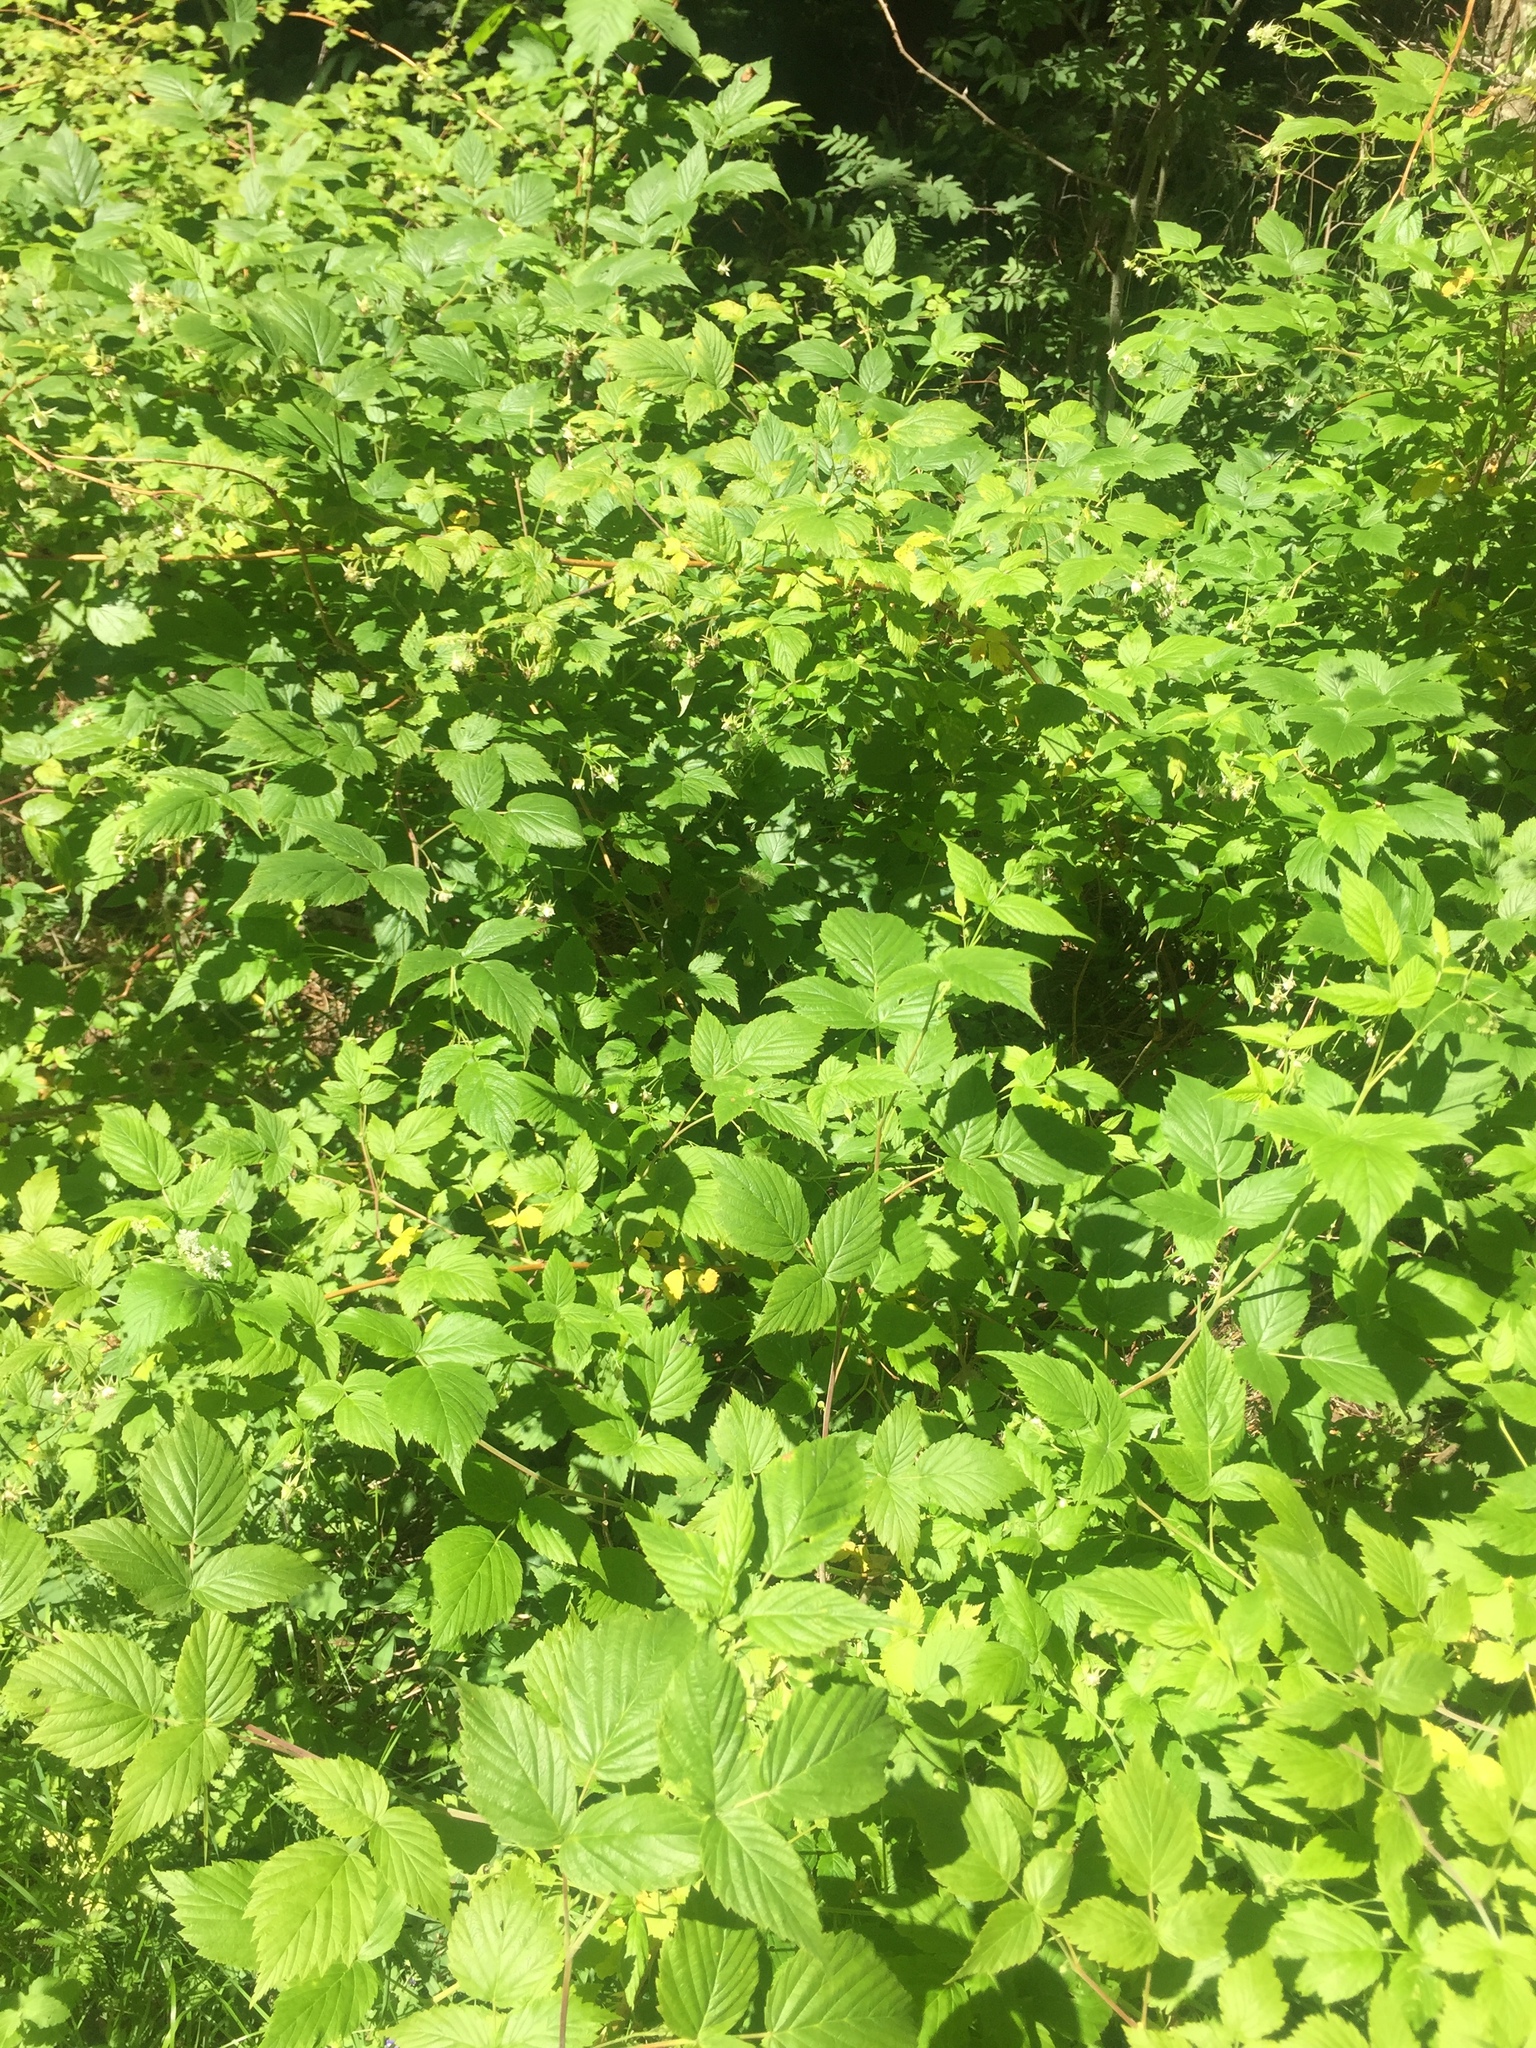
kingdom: Plantae
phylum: Tracheophyta
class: Magnoliopsida
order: Rosales
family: Rosaceae
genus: Rubus
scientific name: Rubus idaeus
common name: Raspberry
